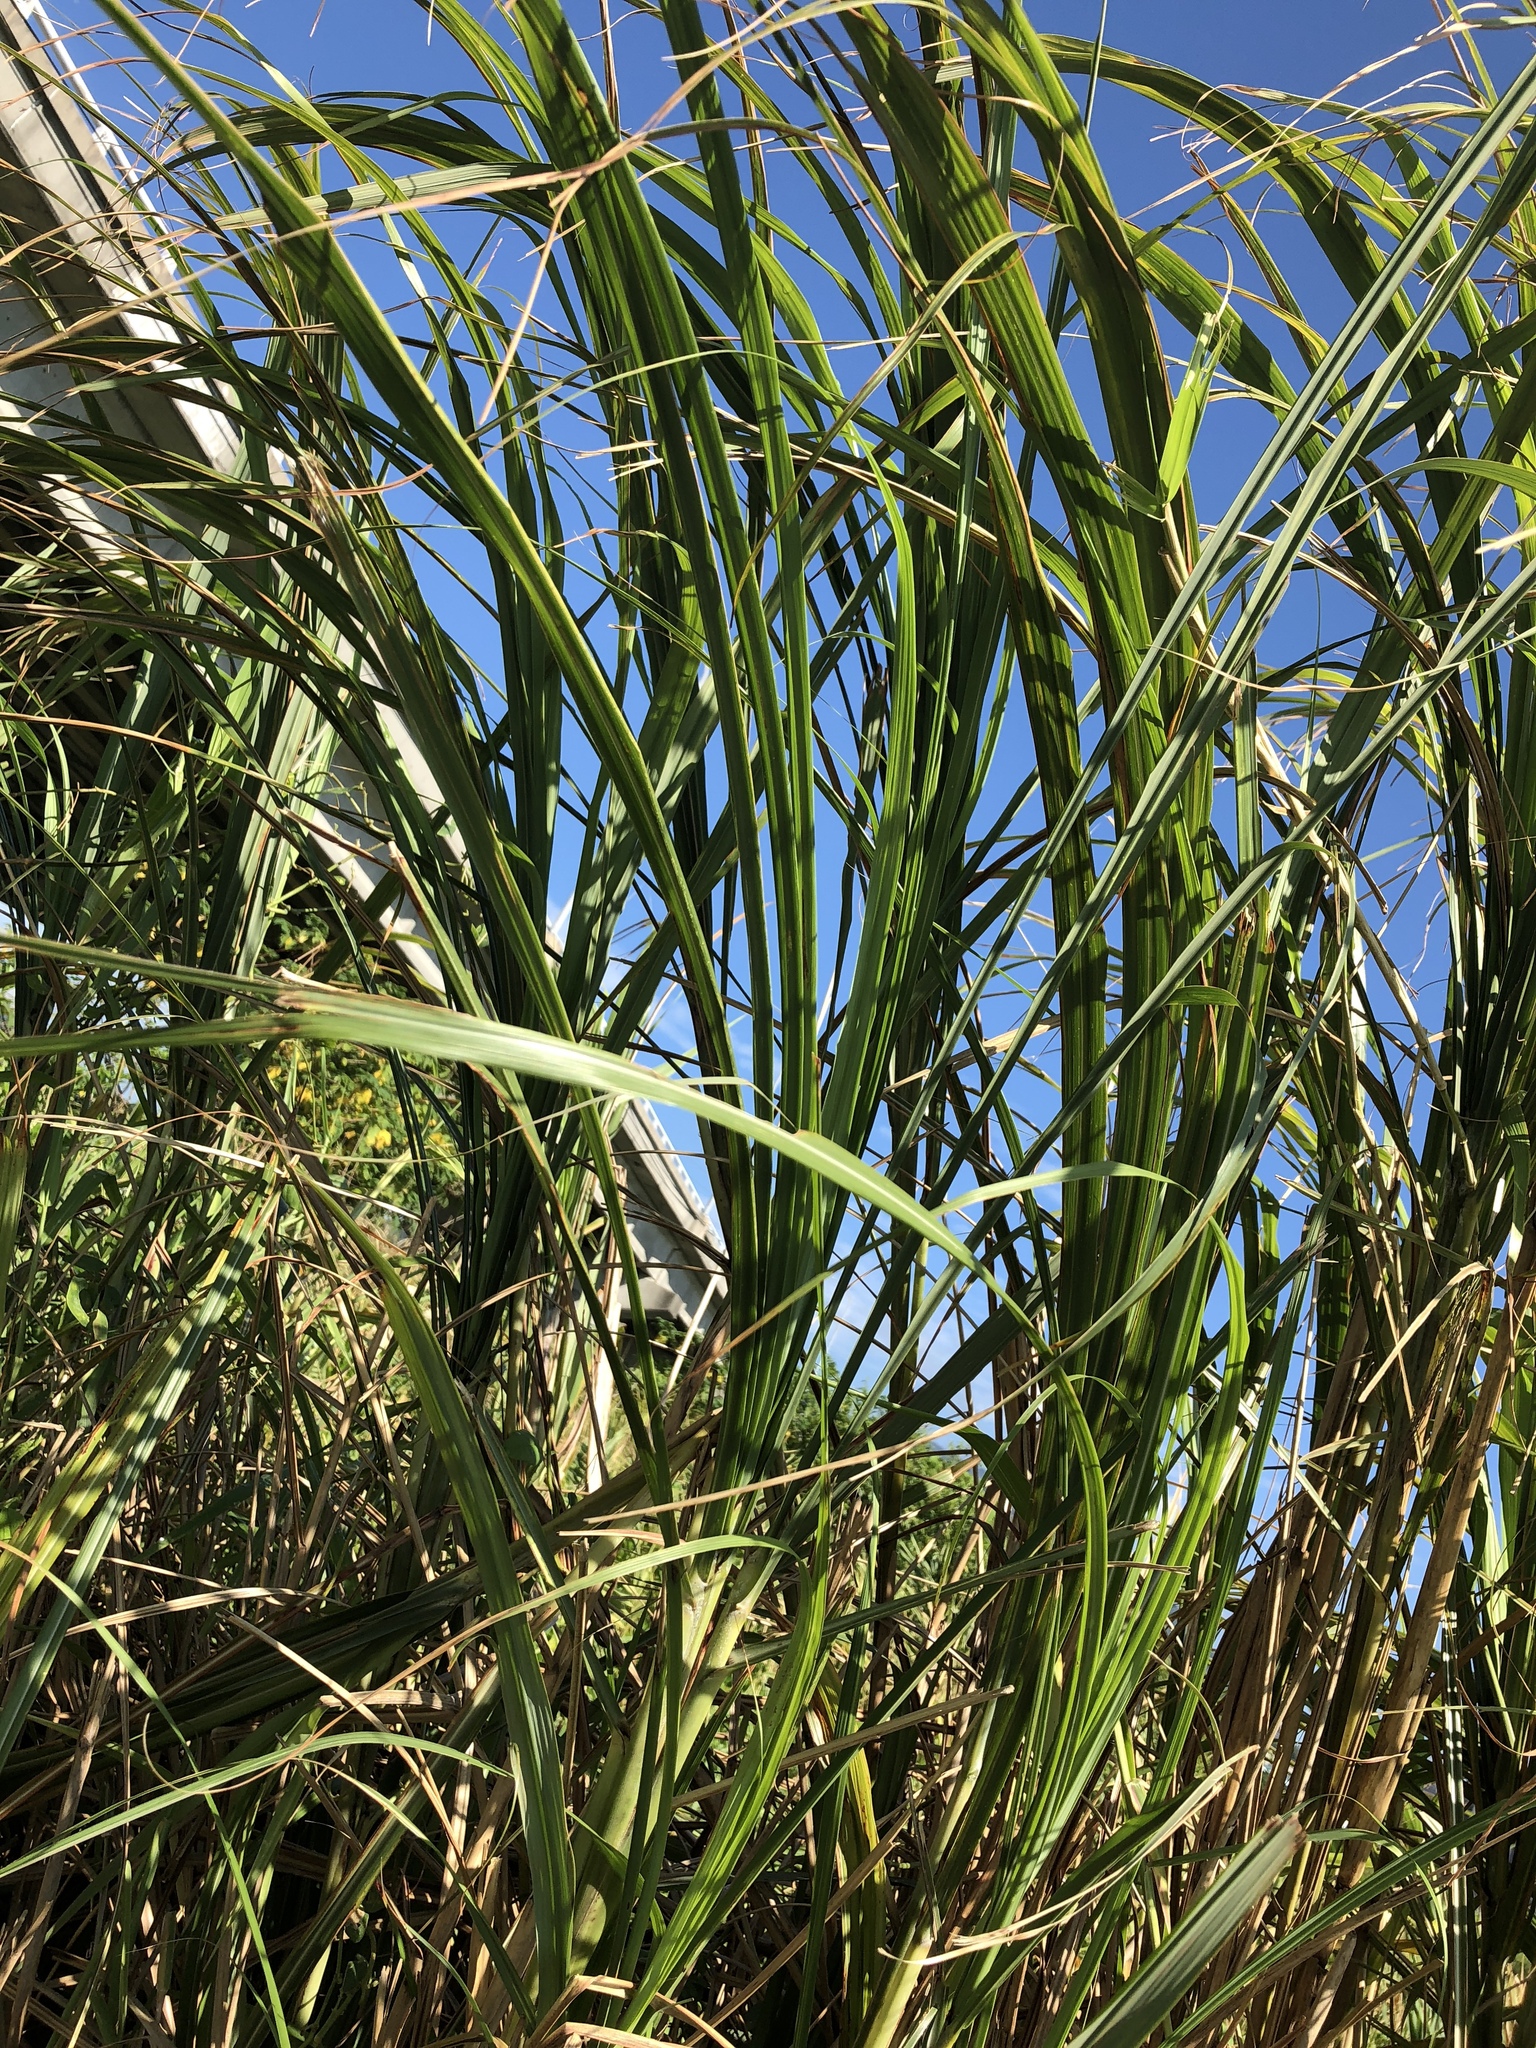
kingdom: Plantae
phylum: Tracheophyta
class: Liliopsida
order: Poales
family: Poaceae
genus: Miscanthus
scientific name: Miscanthus sinensis
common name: Chinese silvergrass
